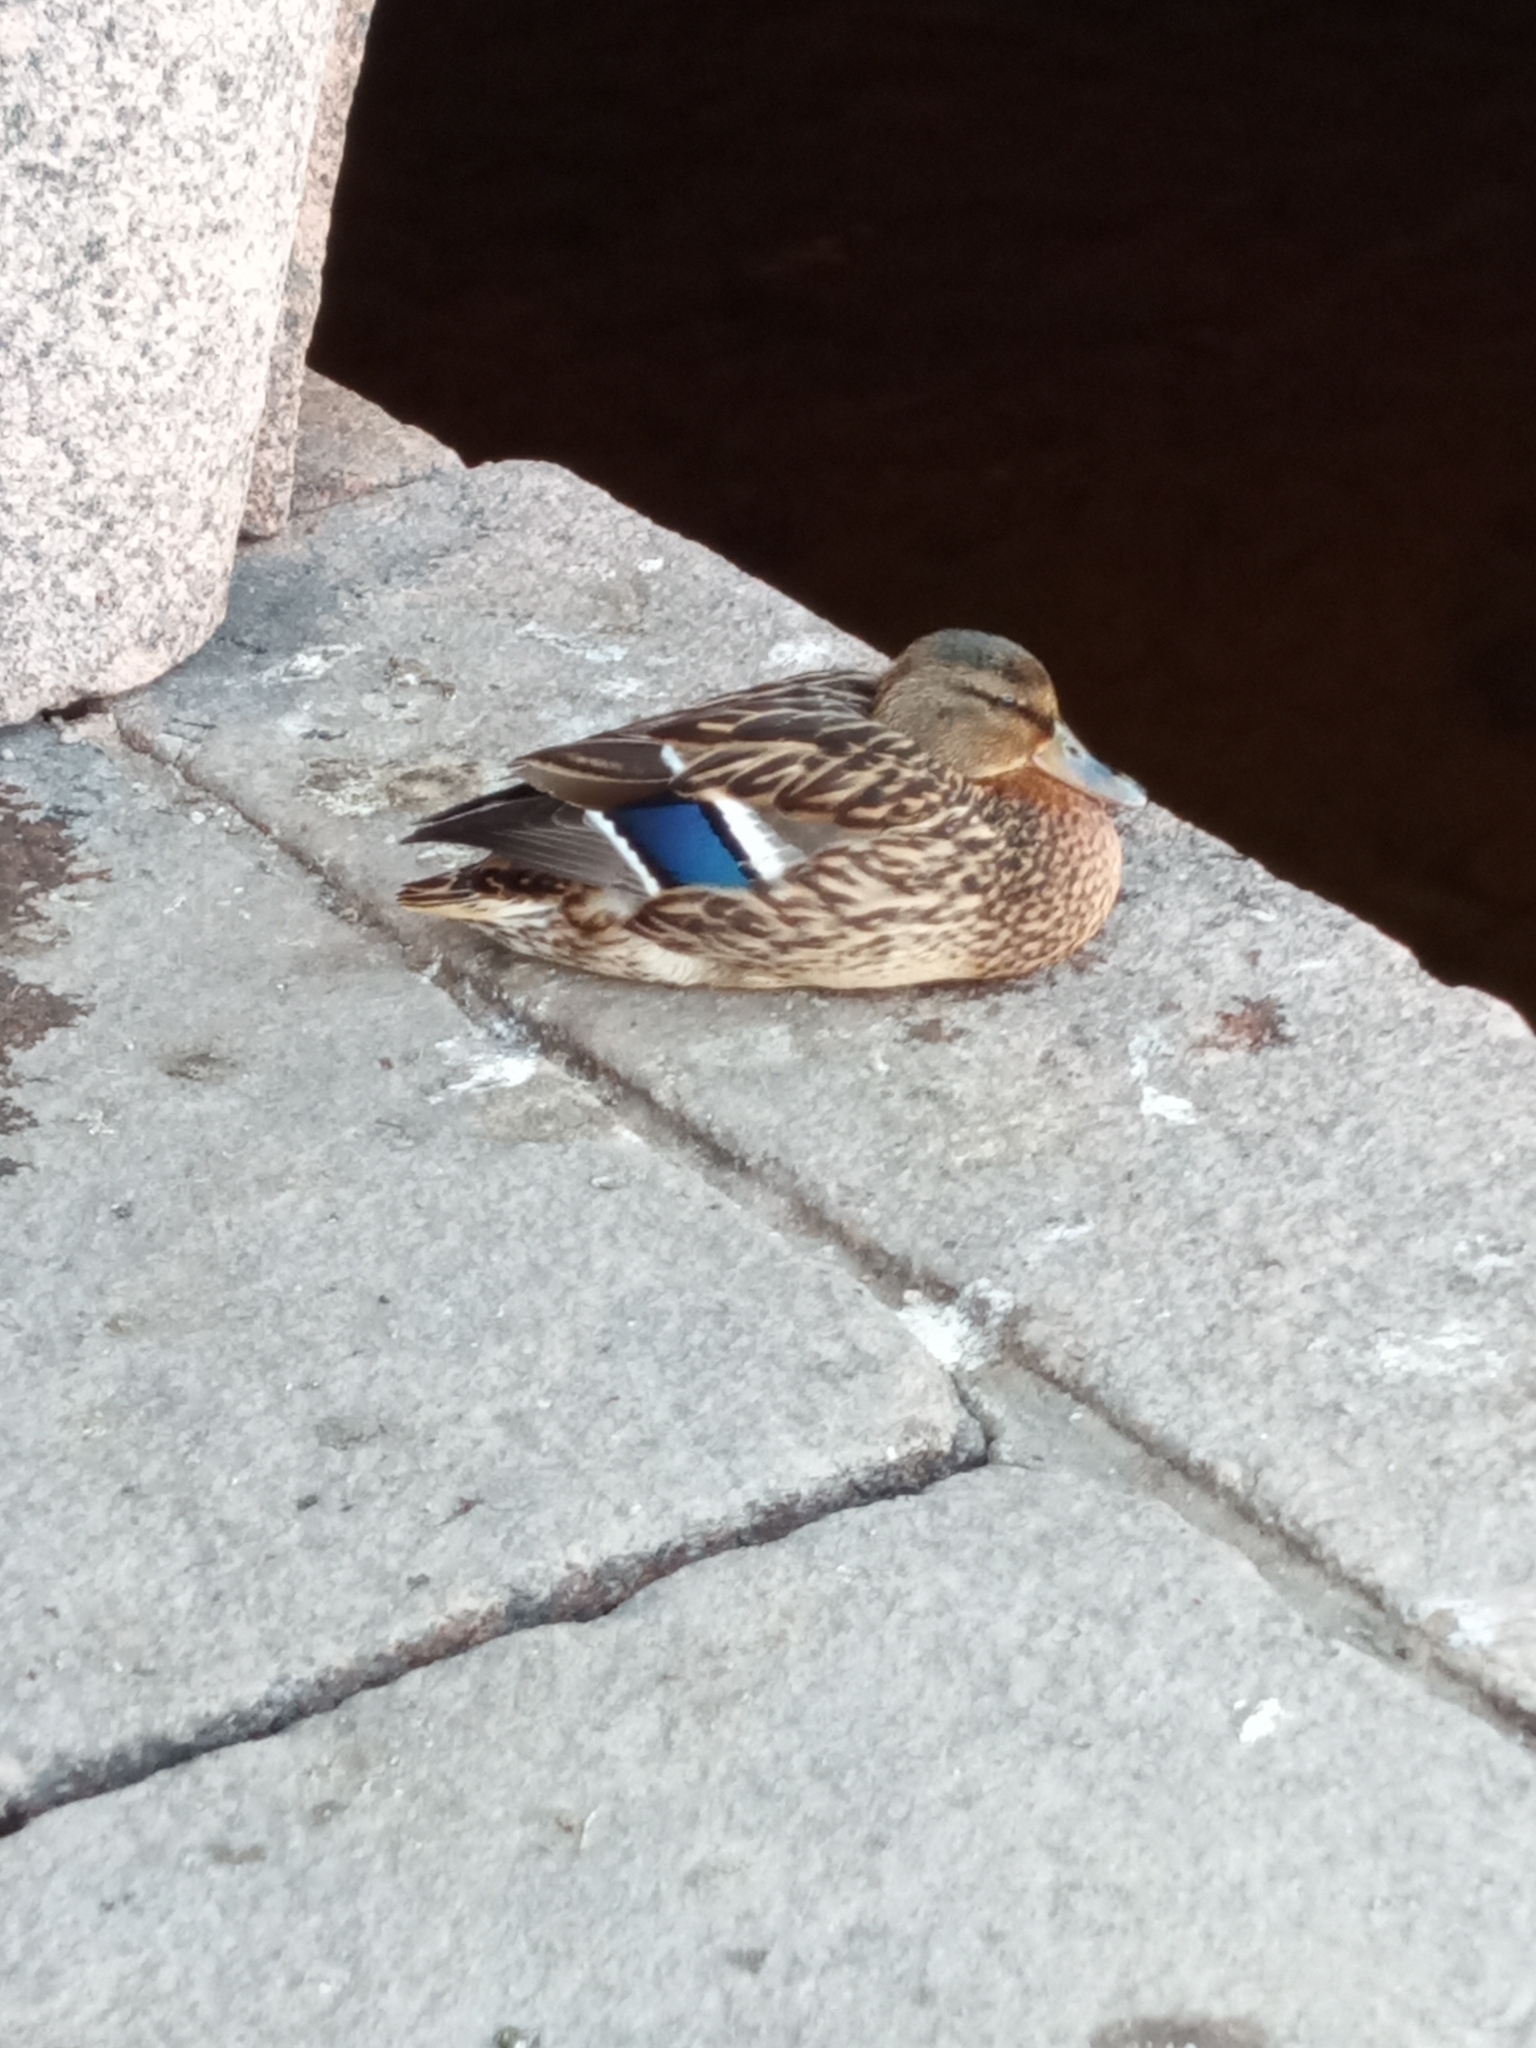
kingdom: Animalia
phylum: Chordata
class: Aves
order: Anseriformes
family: Anatidae
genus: Anas
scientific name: Anas platyrhynchos
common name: Mallard
